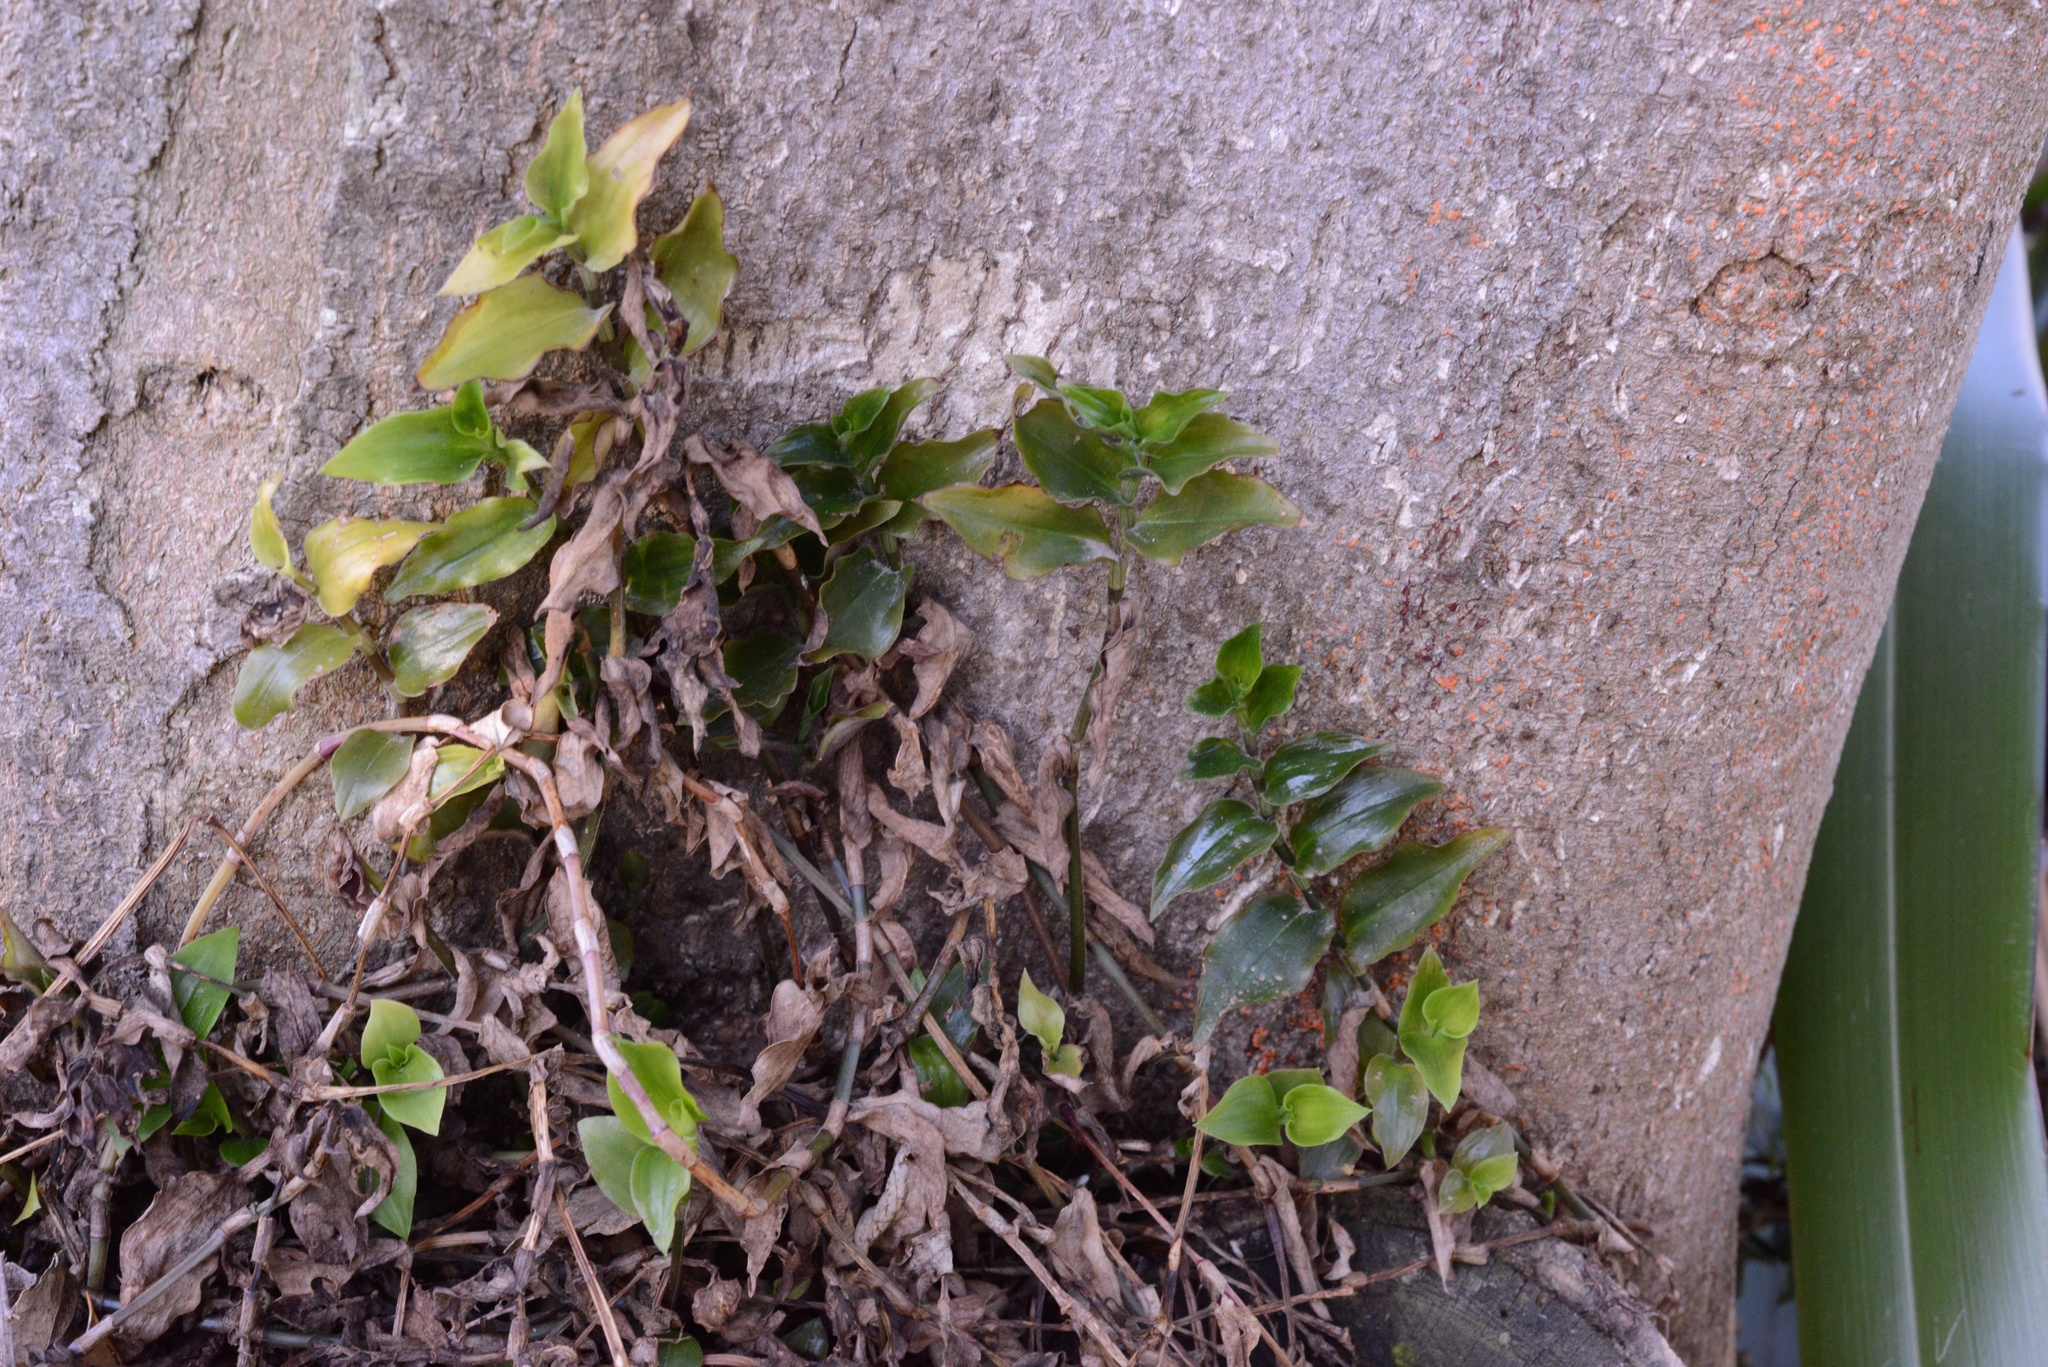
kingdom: Plantae
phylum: Tracheophyta
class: Liliopsida
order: Commelinales
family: Commelinaceae
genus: Tradescantia
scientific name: Tradescantia fluminensis
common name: Wandering-jew
